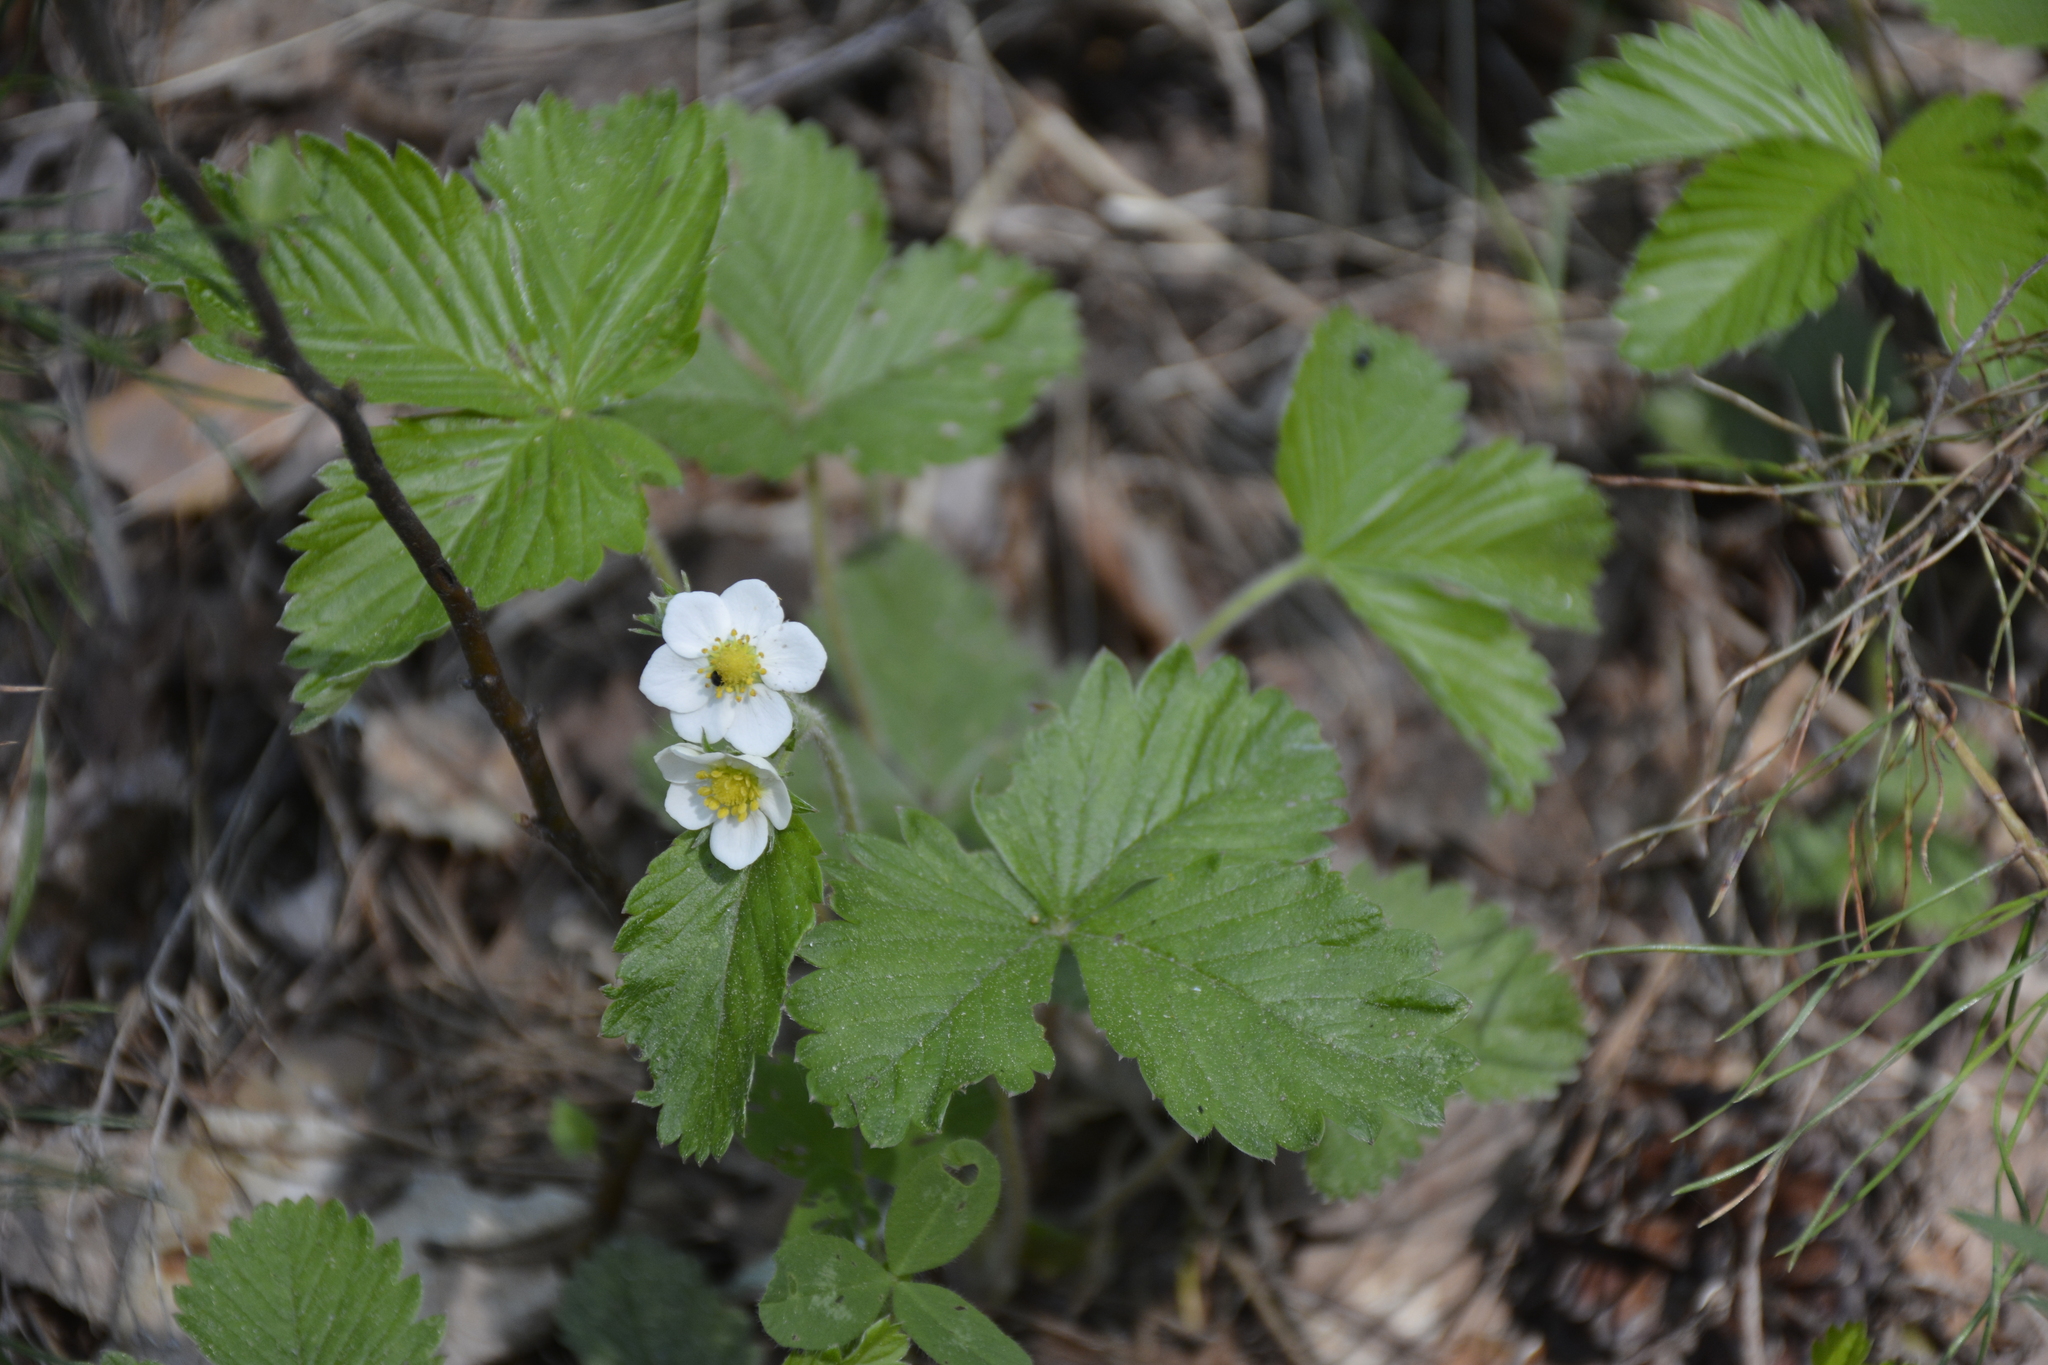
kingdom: Plantae
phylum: Tracheophyta
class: Magnoliopsida
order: Rosales
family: Rosaceae
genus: Fragaria
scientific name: Fragaria vesca
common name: Wild strawberry
